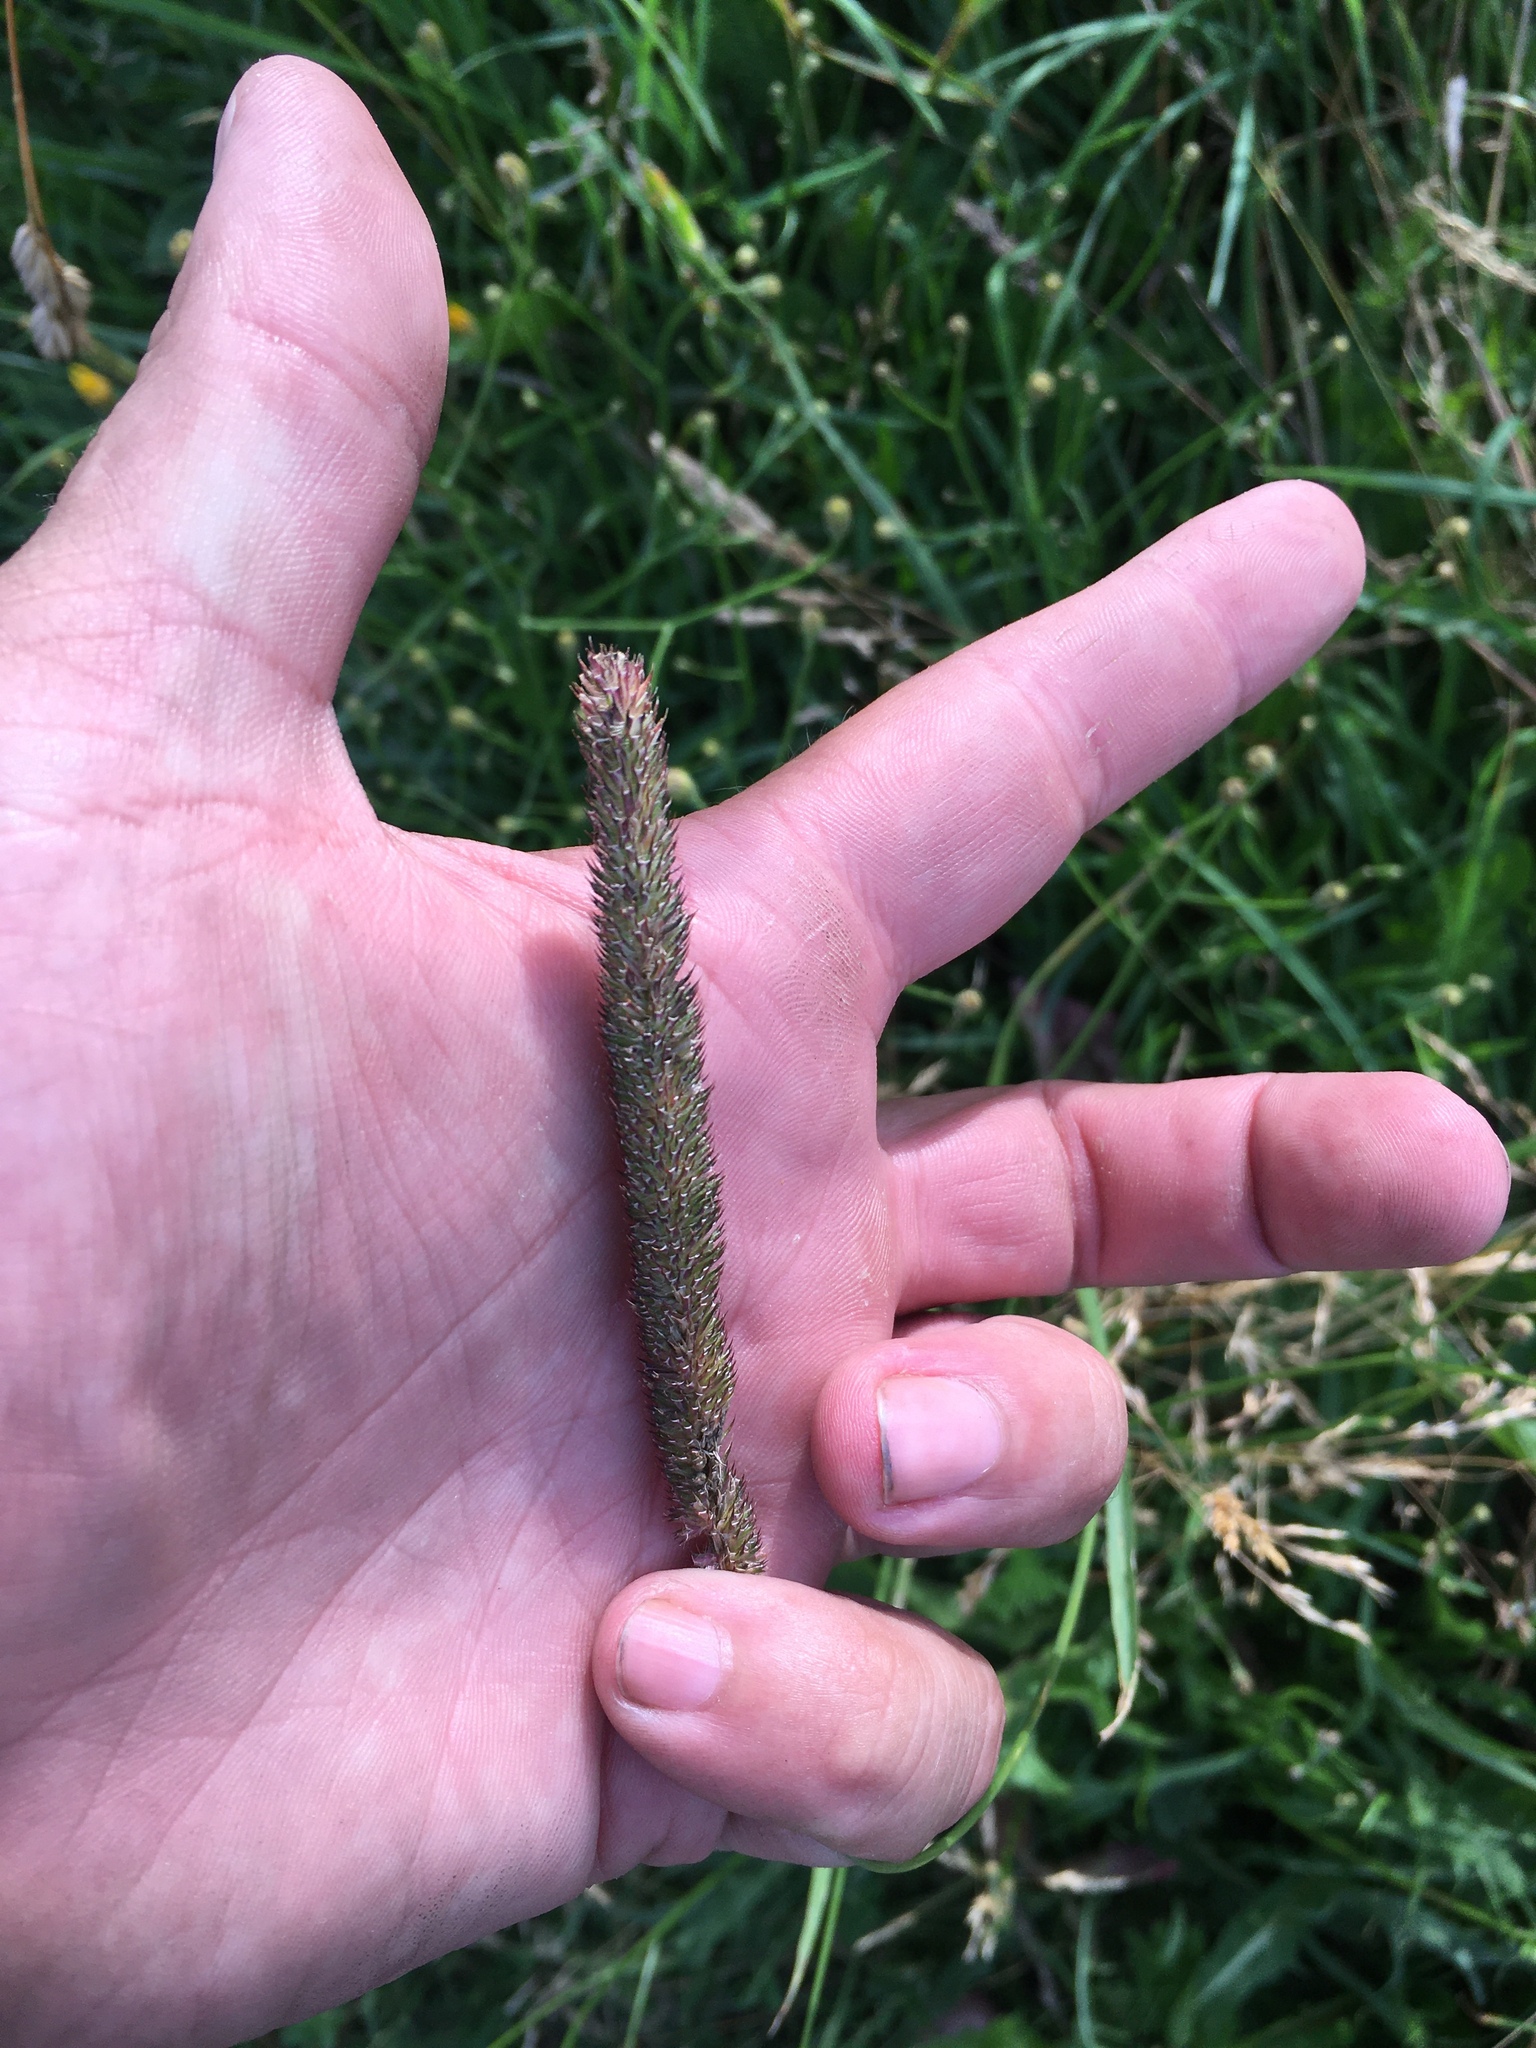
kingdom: Plantae
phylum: Tracheophyta
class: Liliopsida
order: Poales
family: Poaceae
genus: Phleum
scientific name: Phleum pratense
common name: Timothy grass
